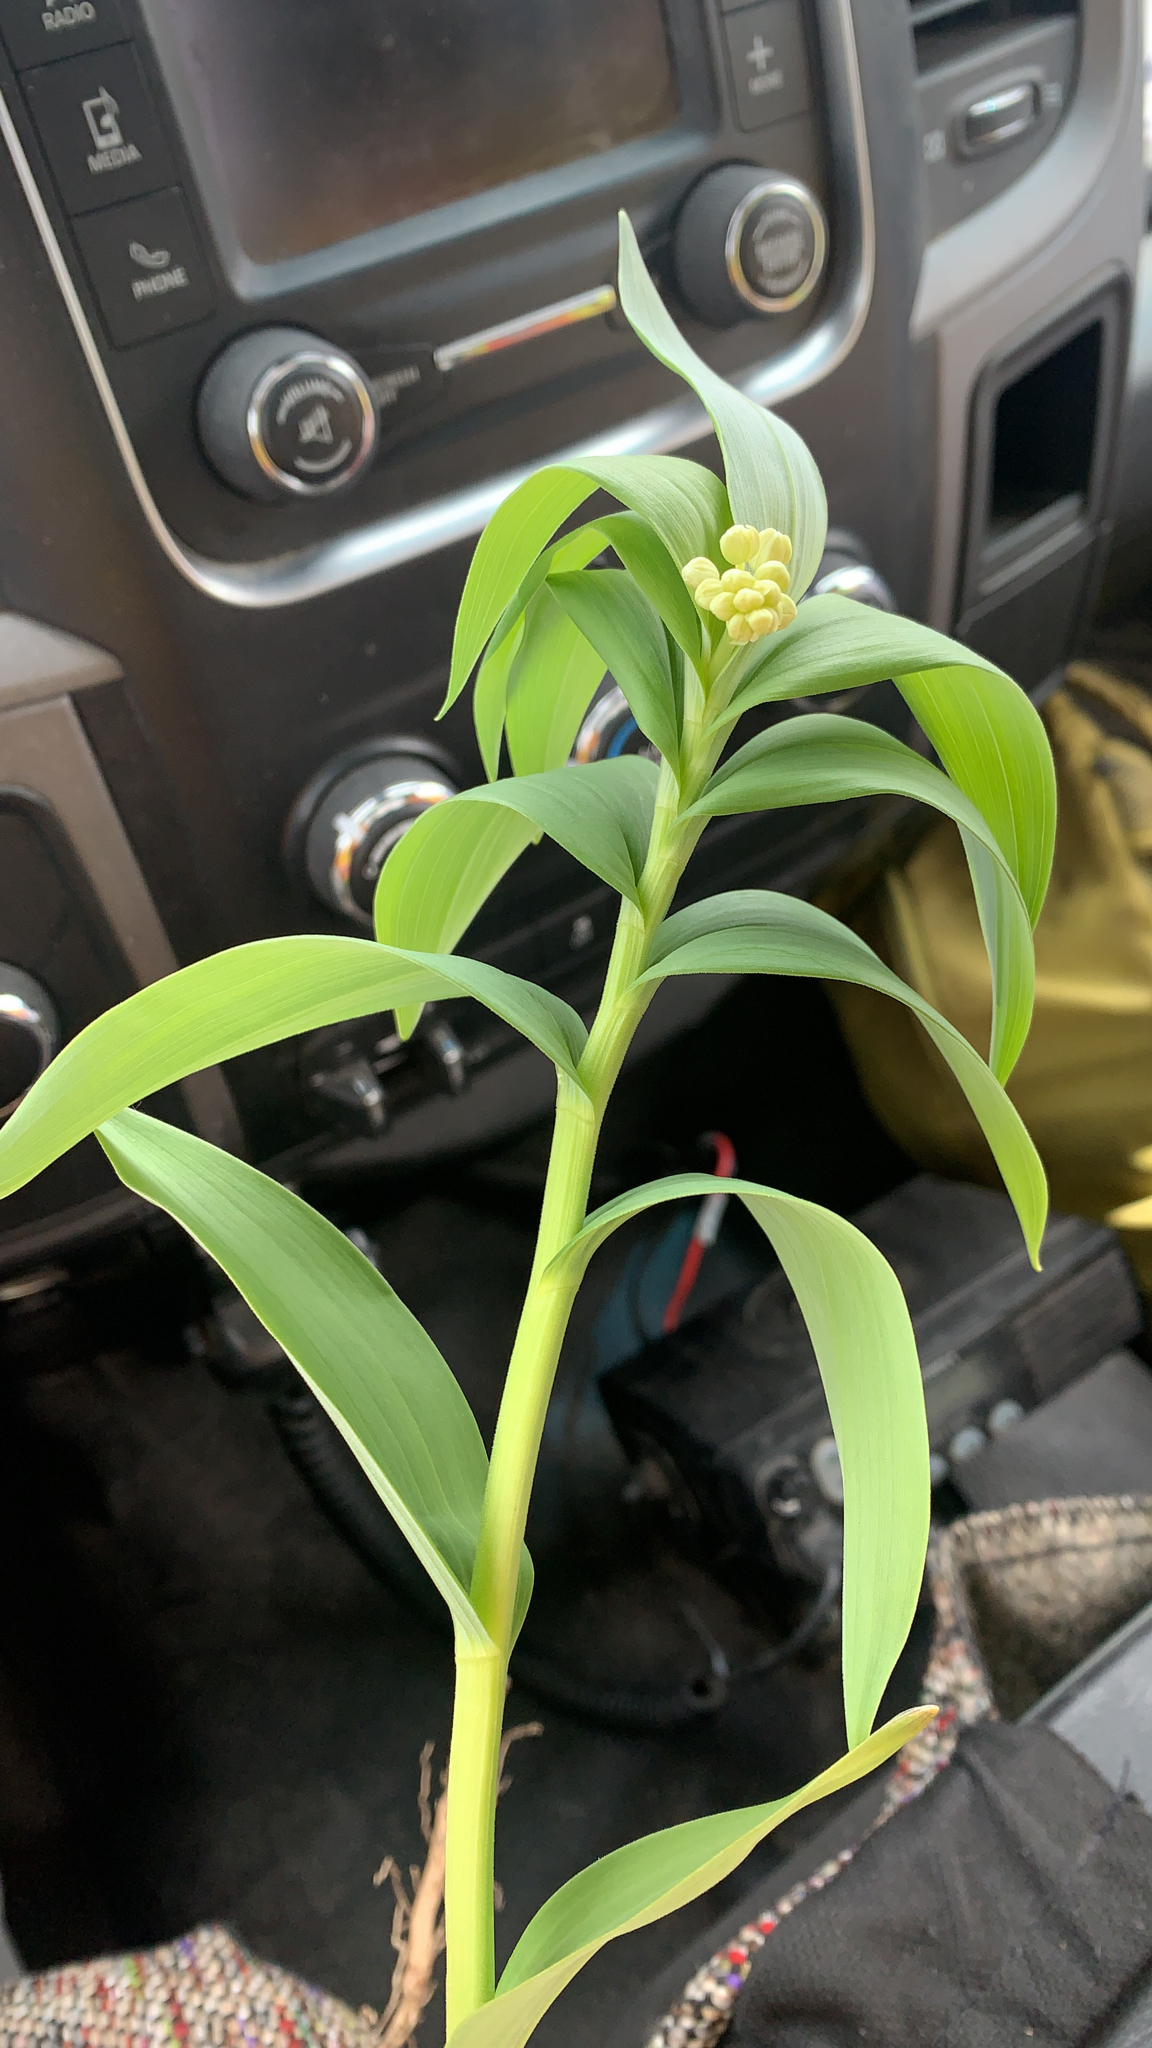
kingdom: Plantae
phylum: Tracheophyta
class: Liliopsida
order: Asparagales
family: Asparagaceae
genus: Maianthemum
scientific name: Maianthemum stellatum
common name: Little false solomon's seal
